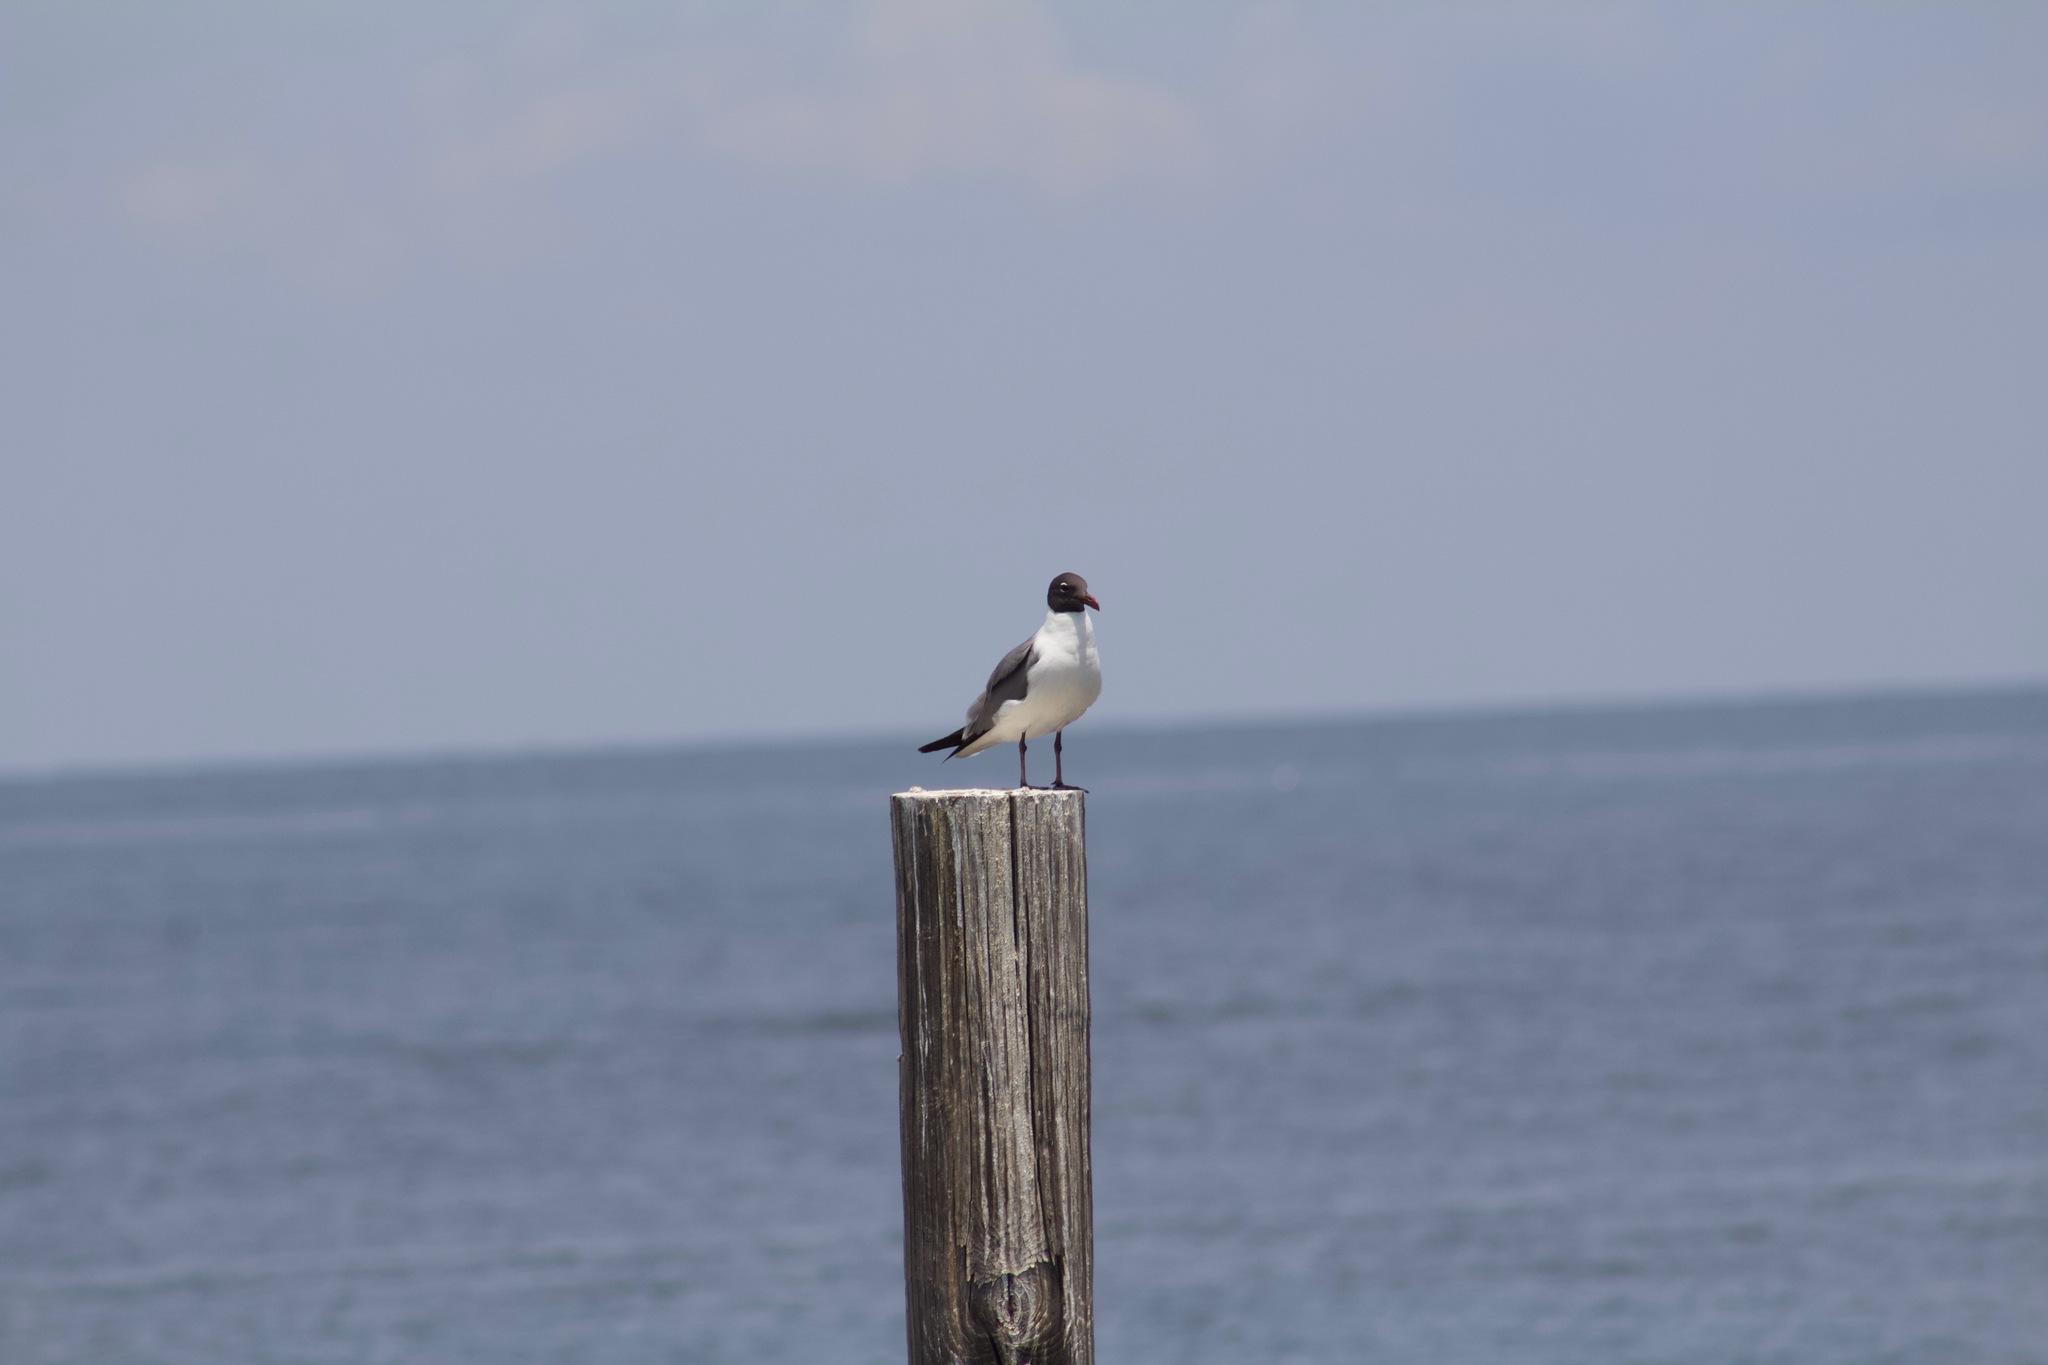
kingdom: Animalia
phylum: Chordata
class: Aves
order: Charadriiformes
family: Laridae
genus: Leucophaeus
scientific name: Leucophaeus atricilla
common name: Laughing gull
